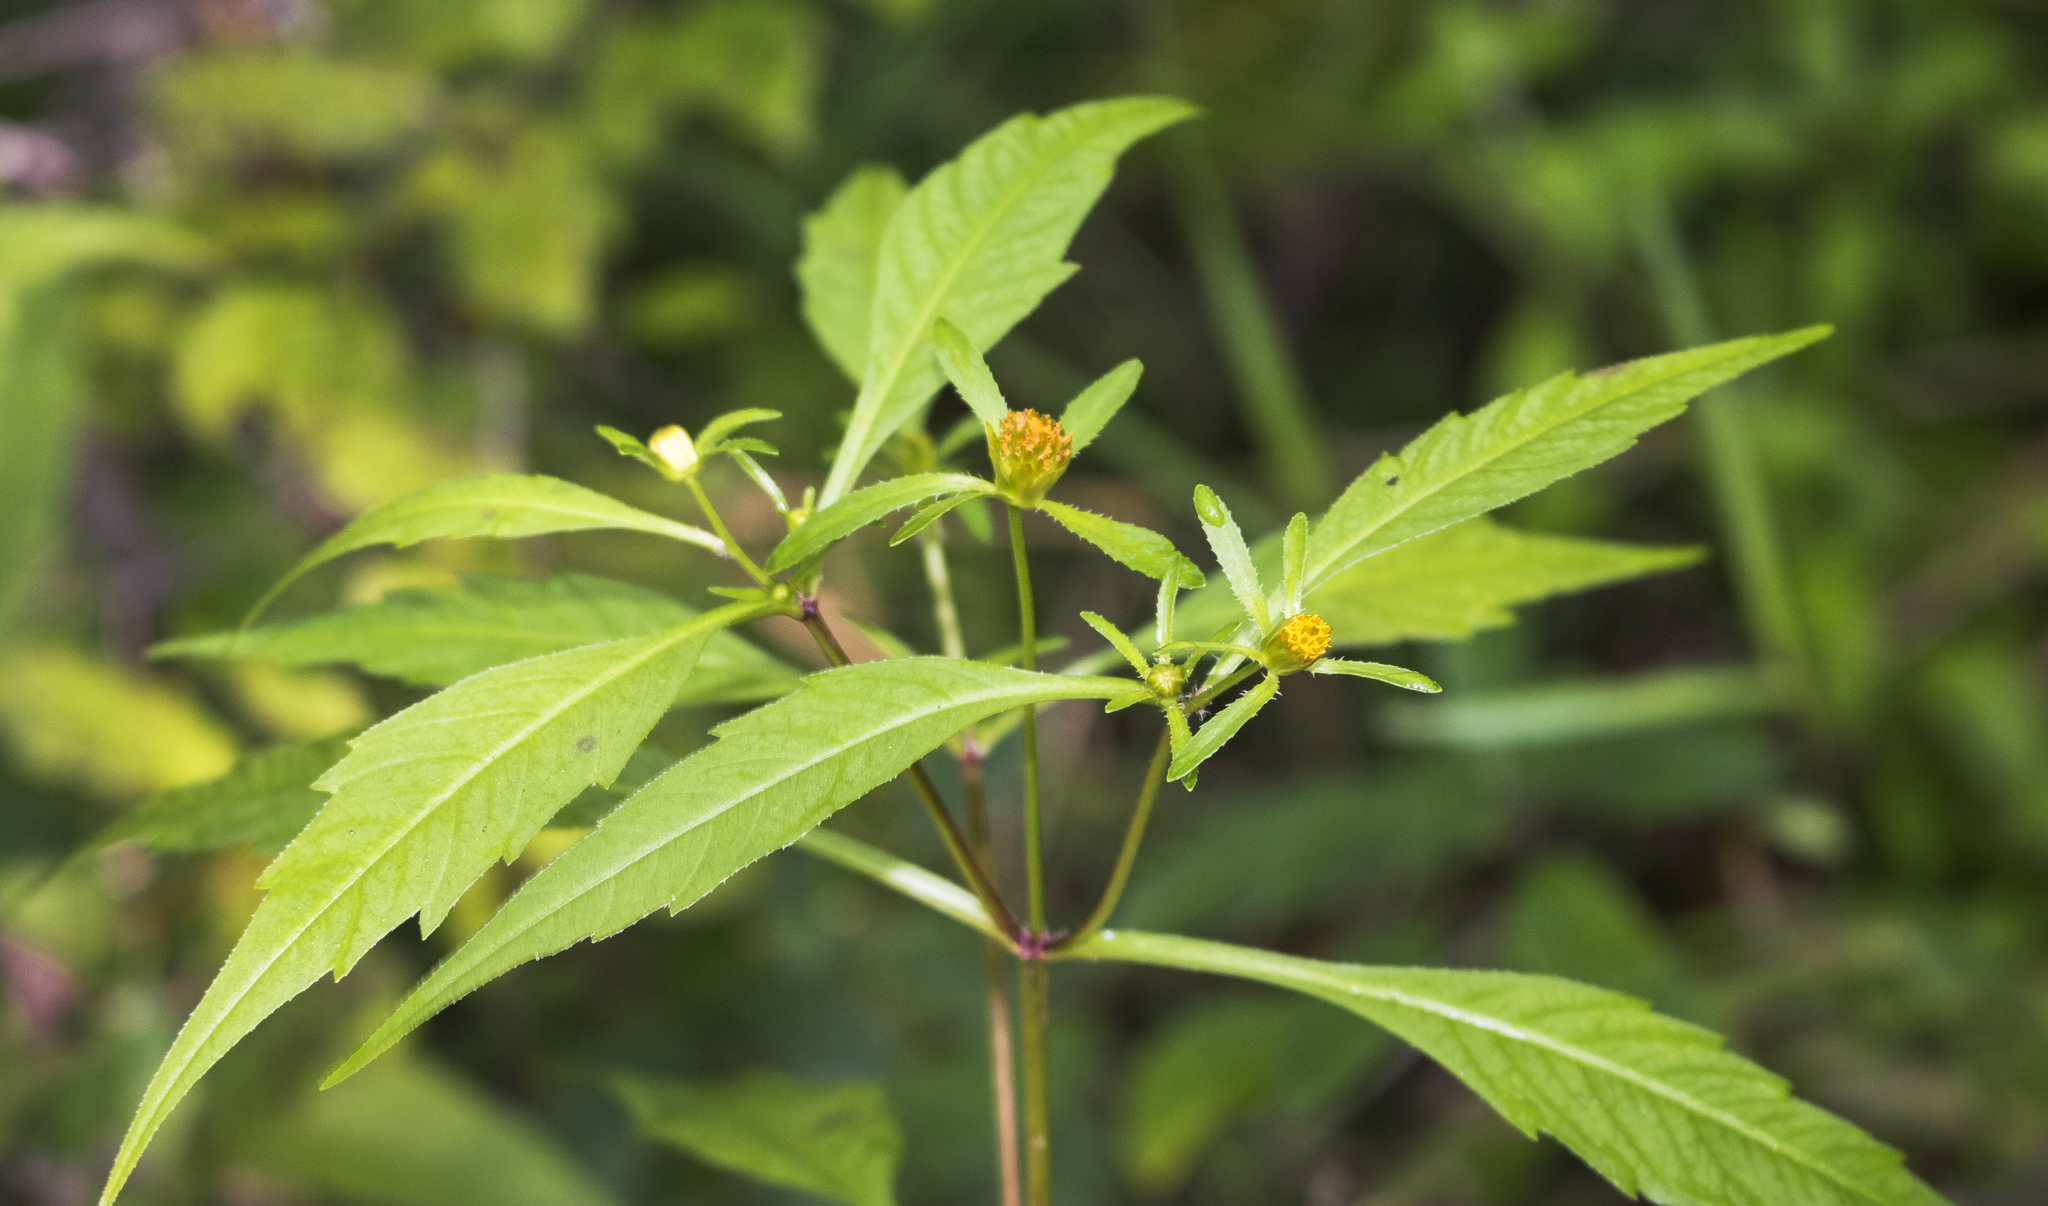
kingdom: Plantae
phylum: Tracheophyta
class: Magnoliopsida
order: Asterales
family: Asteraceae
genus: Bidens
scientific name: Bidens connata
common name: London bur-marigold
